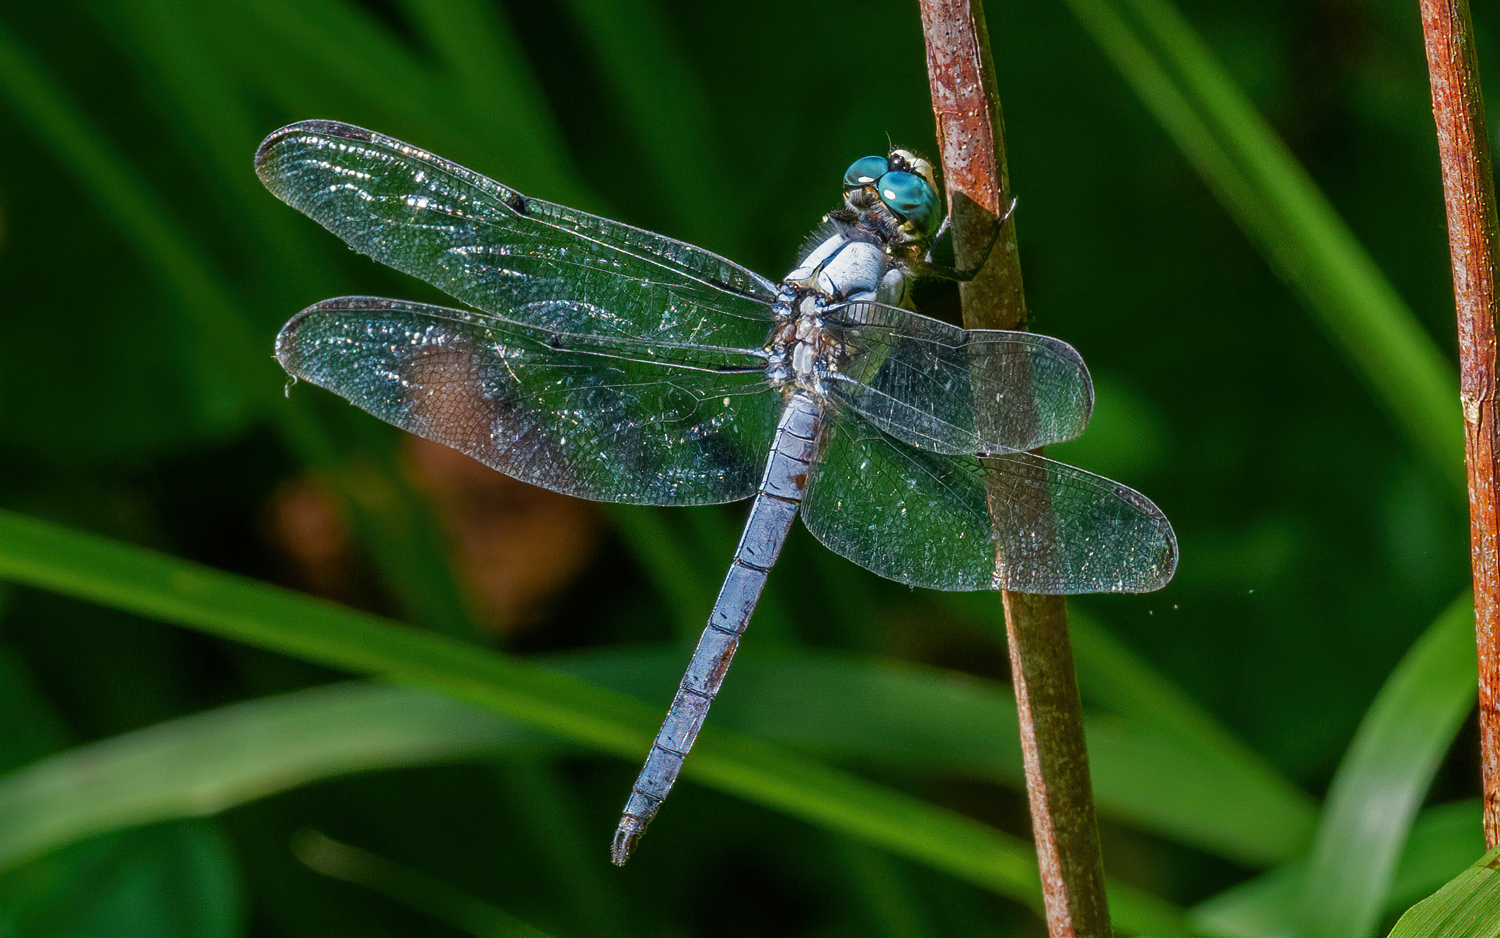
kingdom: Animalia
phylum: Arthropoda
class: Insecta
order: Odonata
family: Libellulidae
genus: Libellula
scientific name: Libellula vibrans
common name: Great blue skimmer
